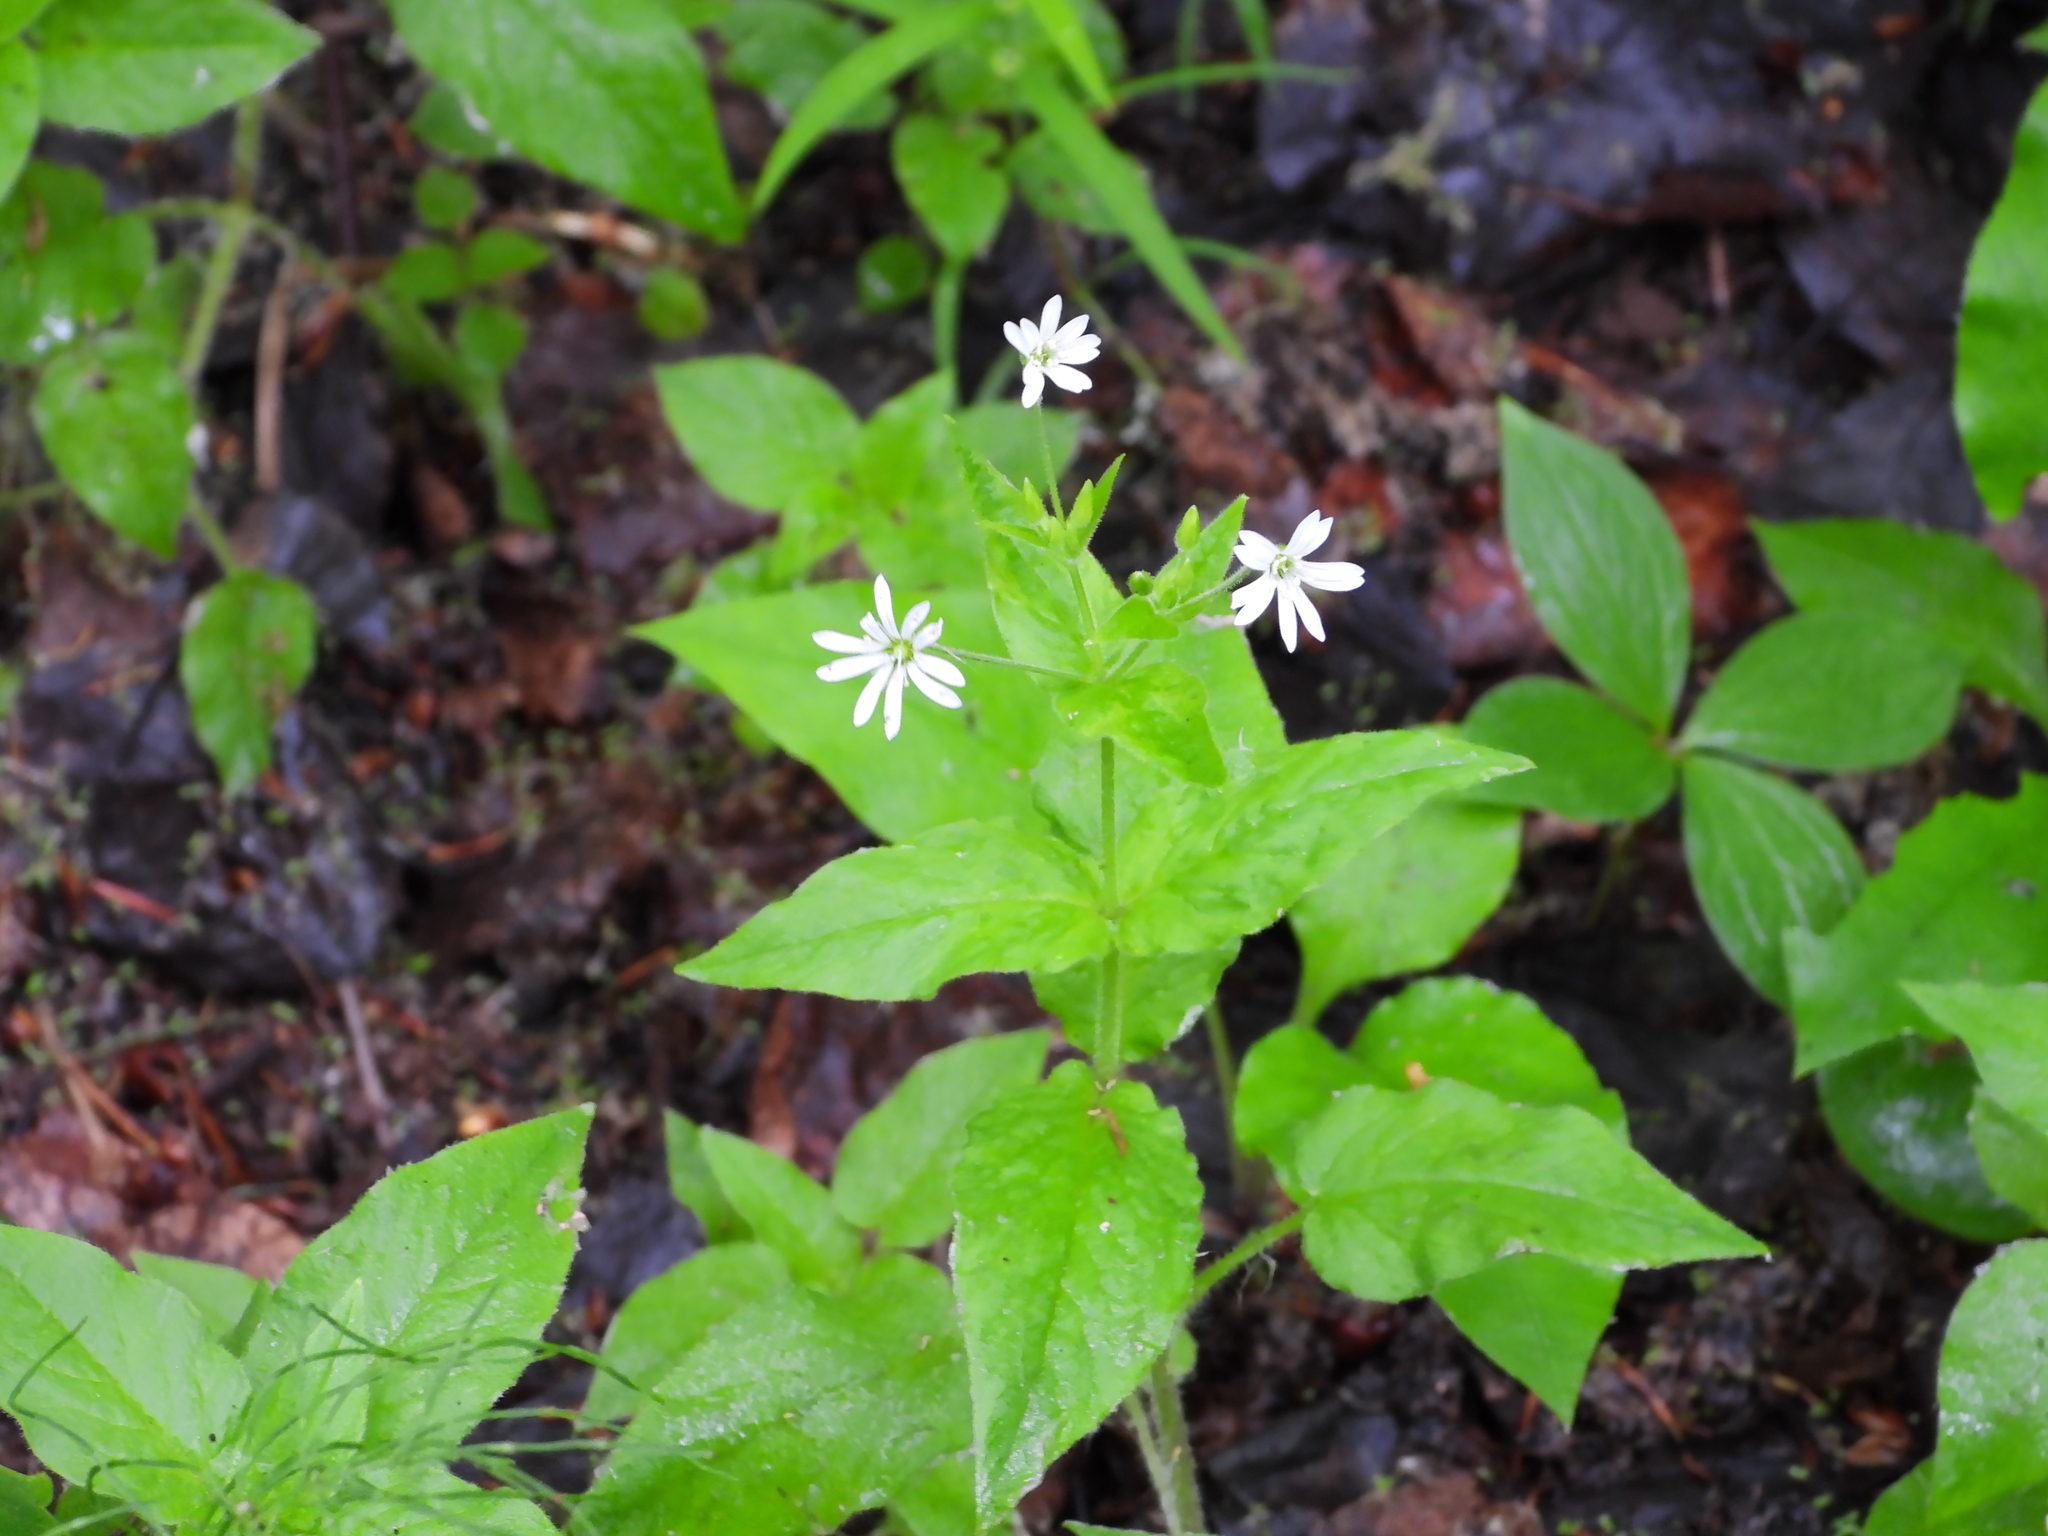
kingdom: Plantae
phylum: Tracheophyta
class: Magnoliopsida
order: Caryophyllales
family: Caryophyllaceae
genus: Stellaria
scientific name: Stellaria nemorum
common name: Wood stitchwort
